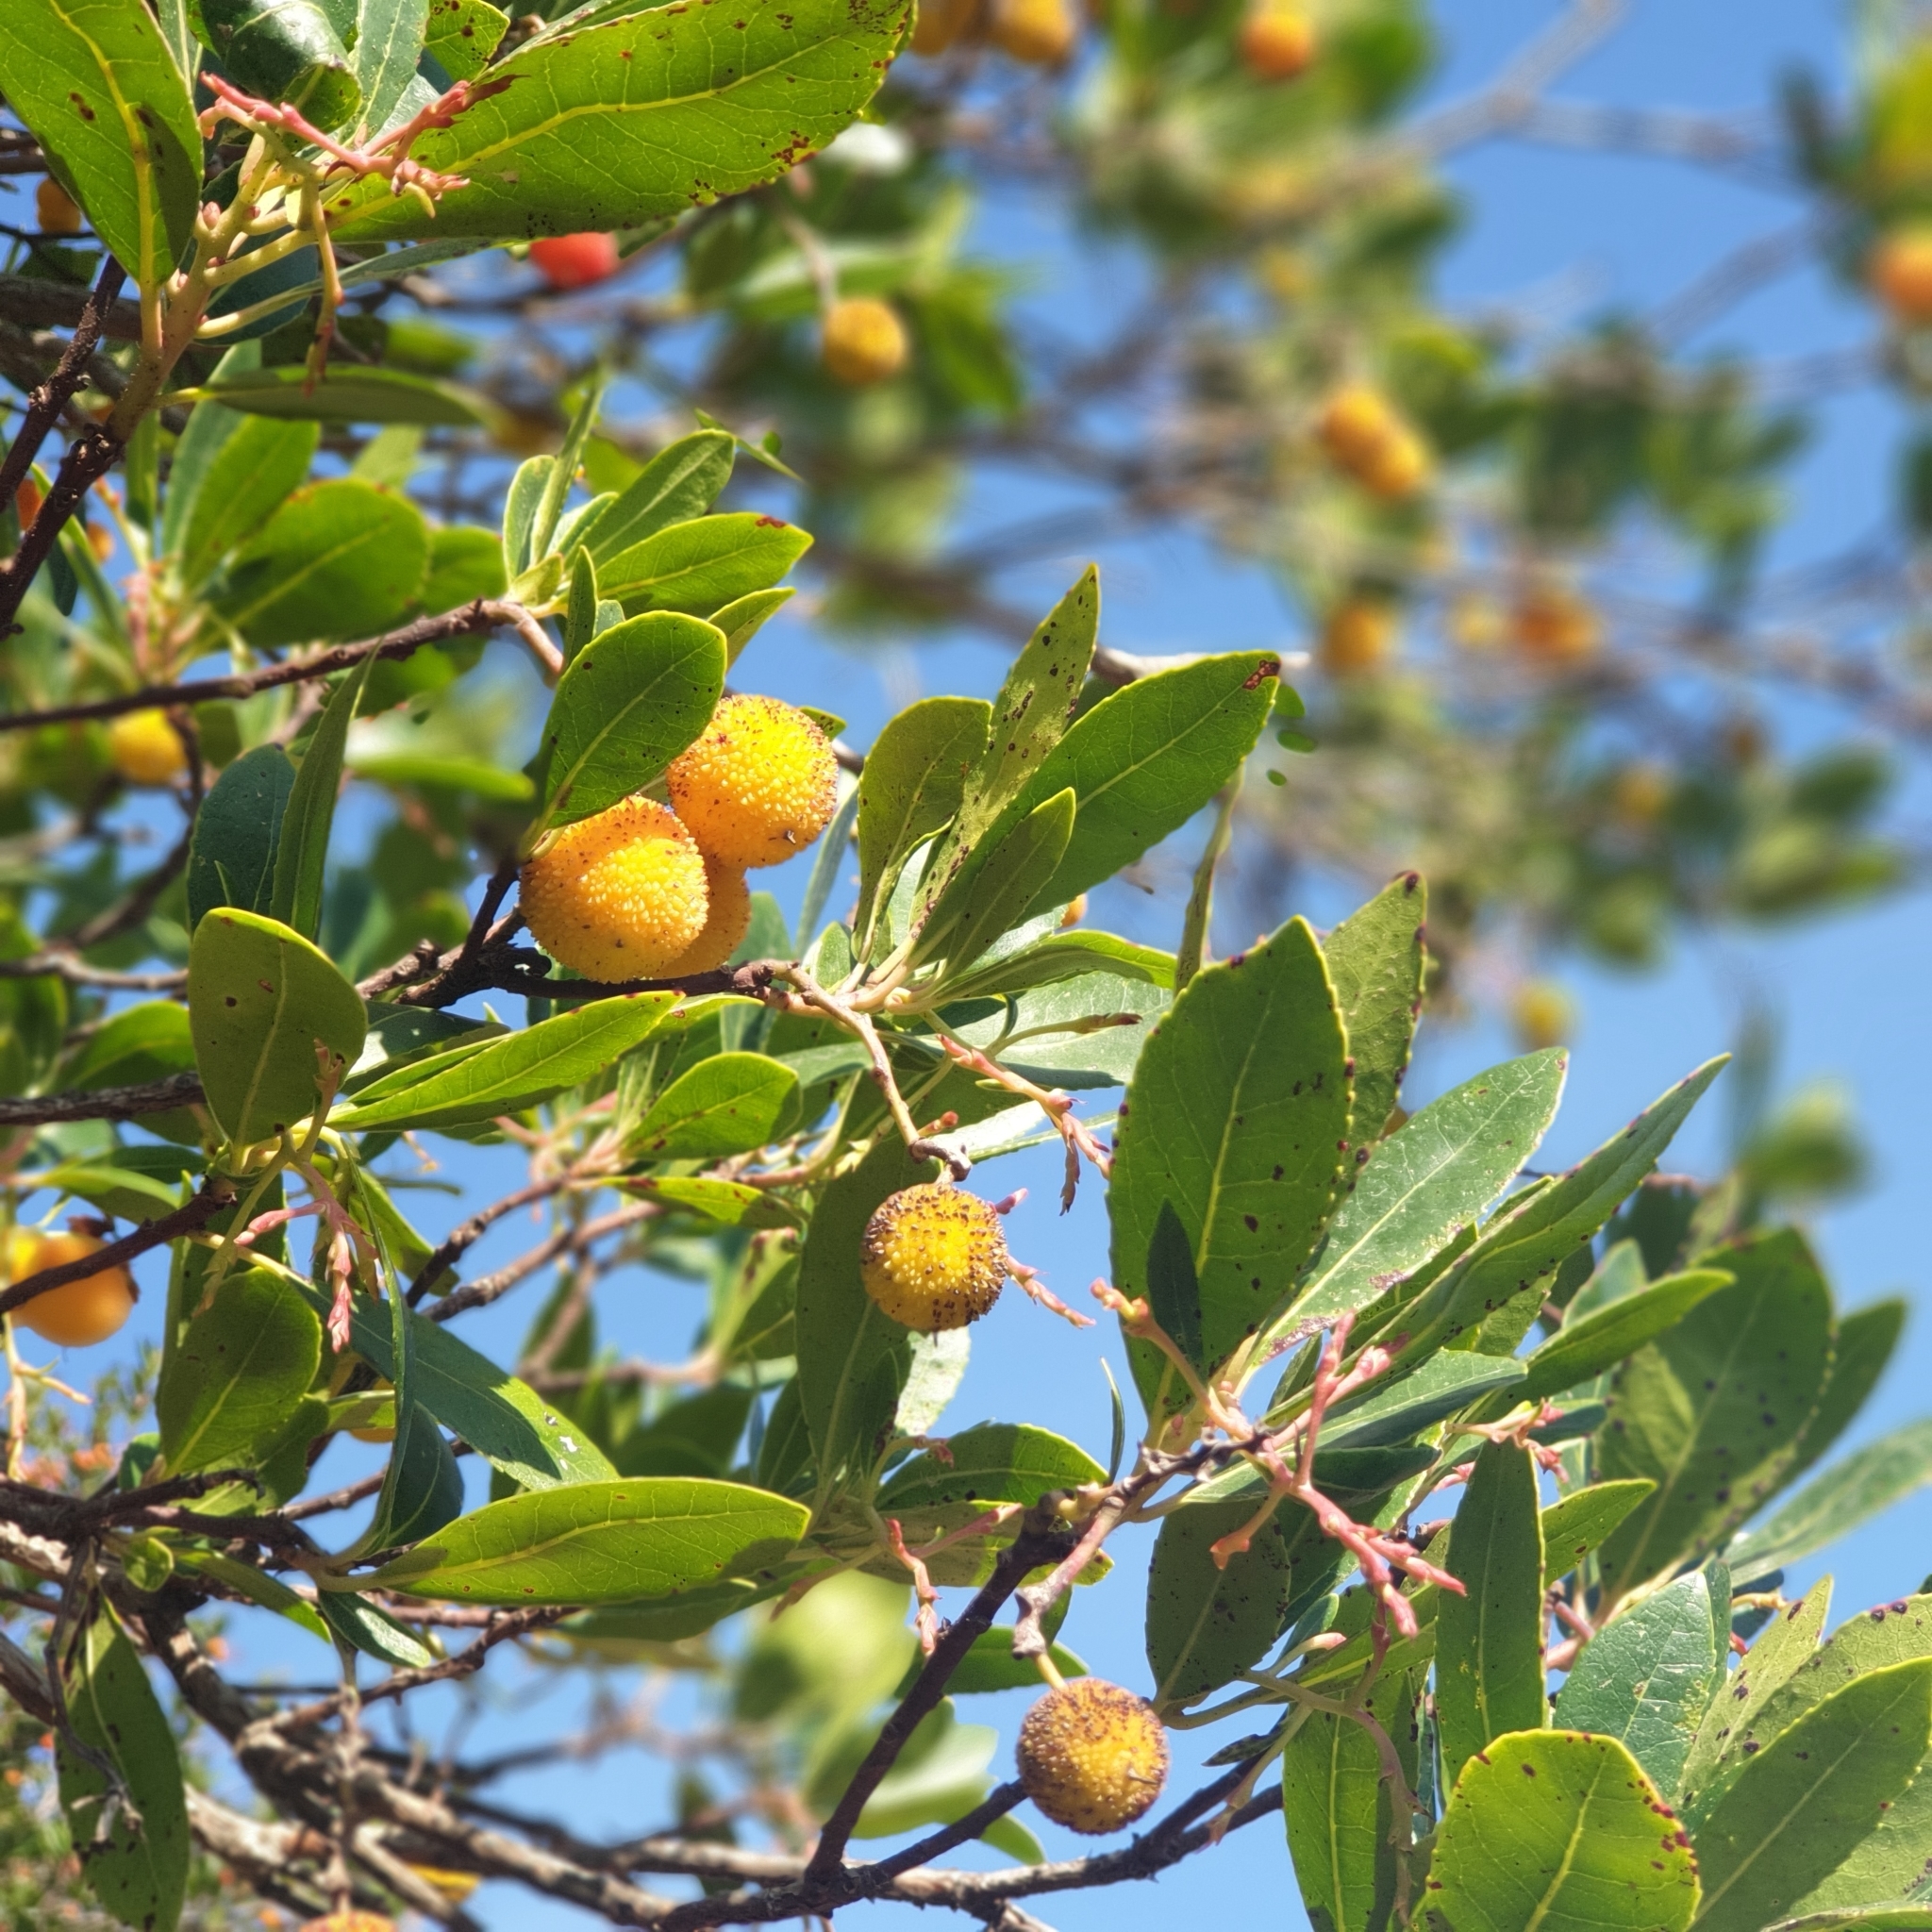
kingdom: Plantae
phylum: Tracheophyta
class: Magnoliopsida
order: Ericales
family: Ericaceae
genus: Arbutus
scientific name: Arbutus unedo
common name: Strawberry-tree
